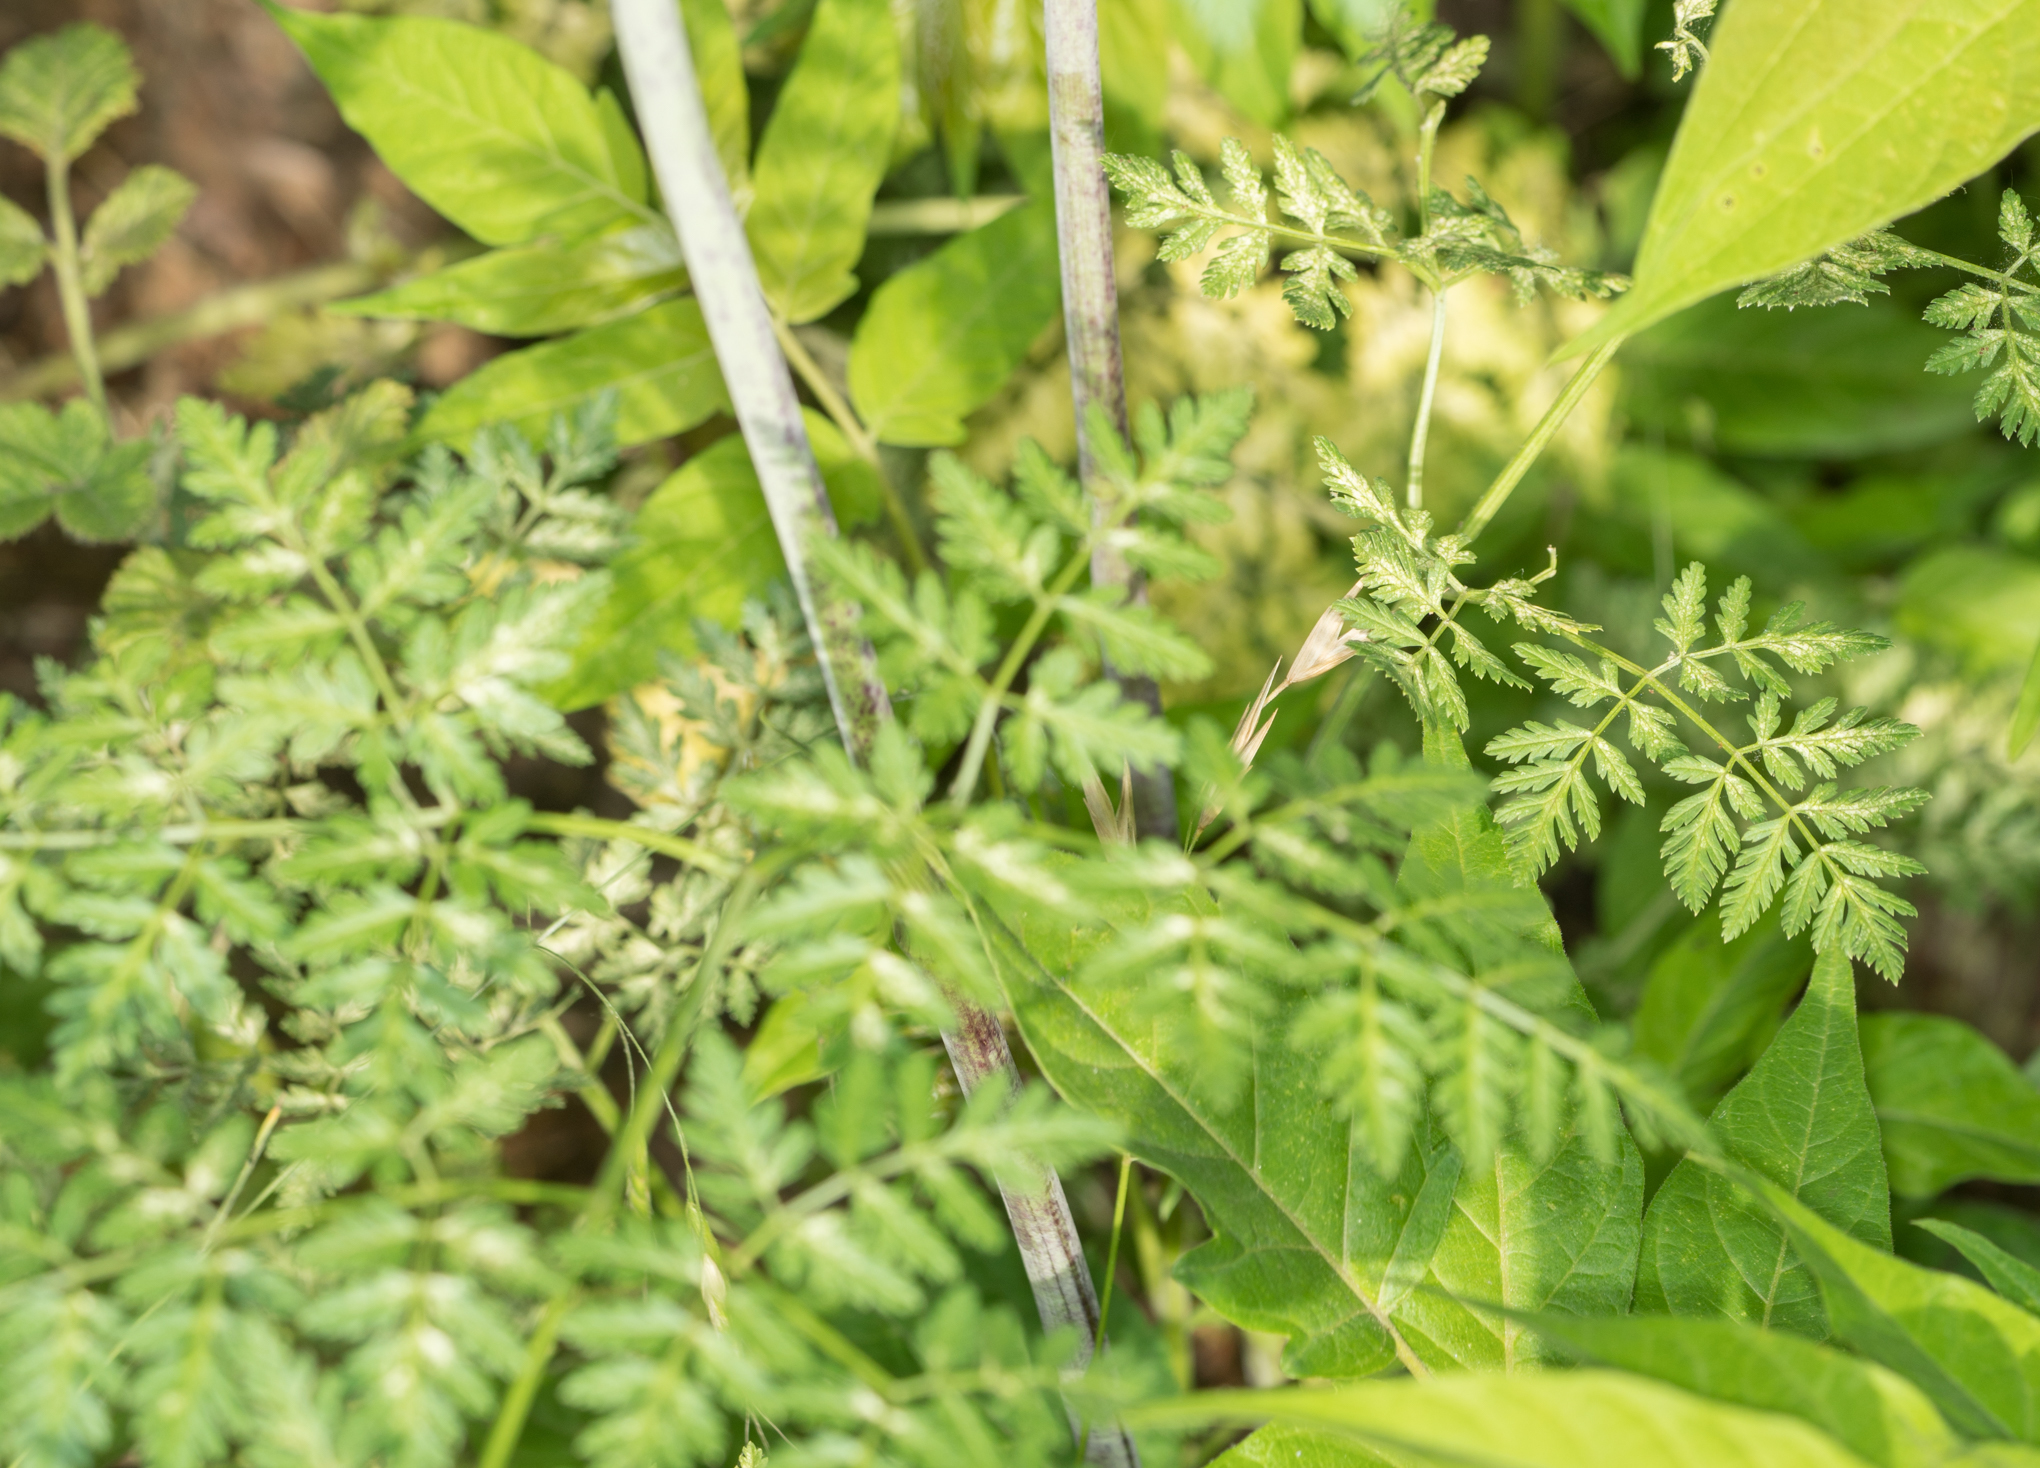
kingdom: Plantae
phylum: Tracheophyta
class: Magnoliopsida
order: Apiales
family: Apiaceae
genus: Conium
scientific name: Conium maculatum
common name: Hemlock
